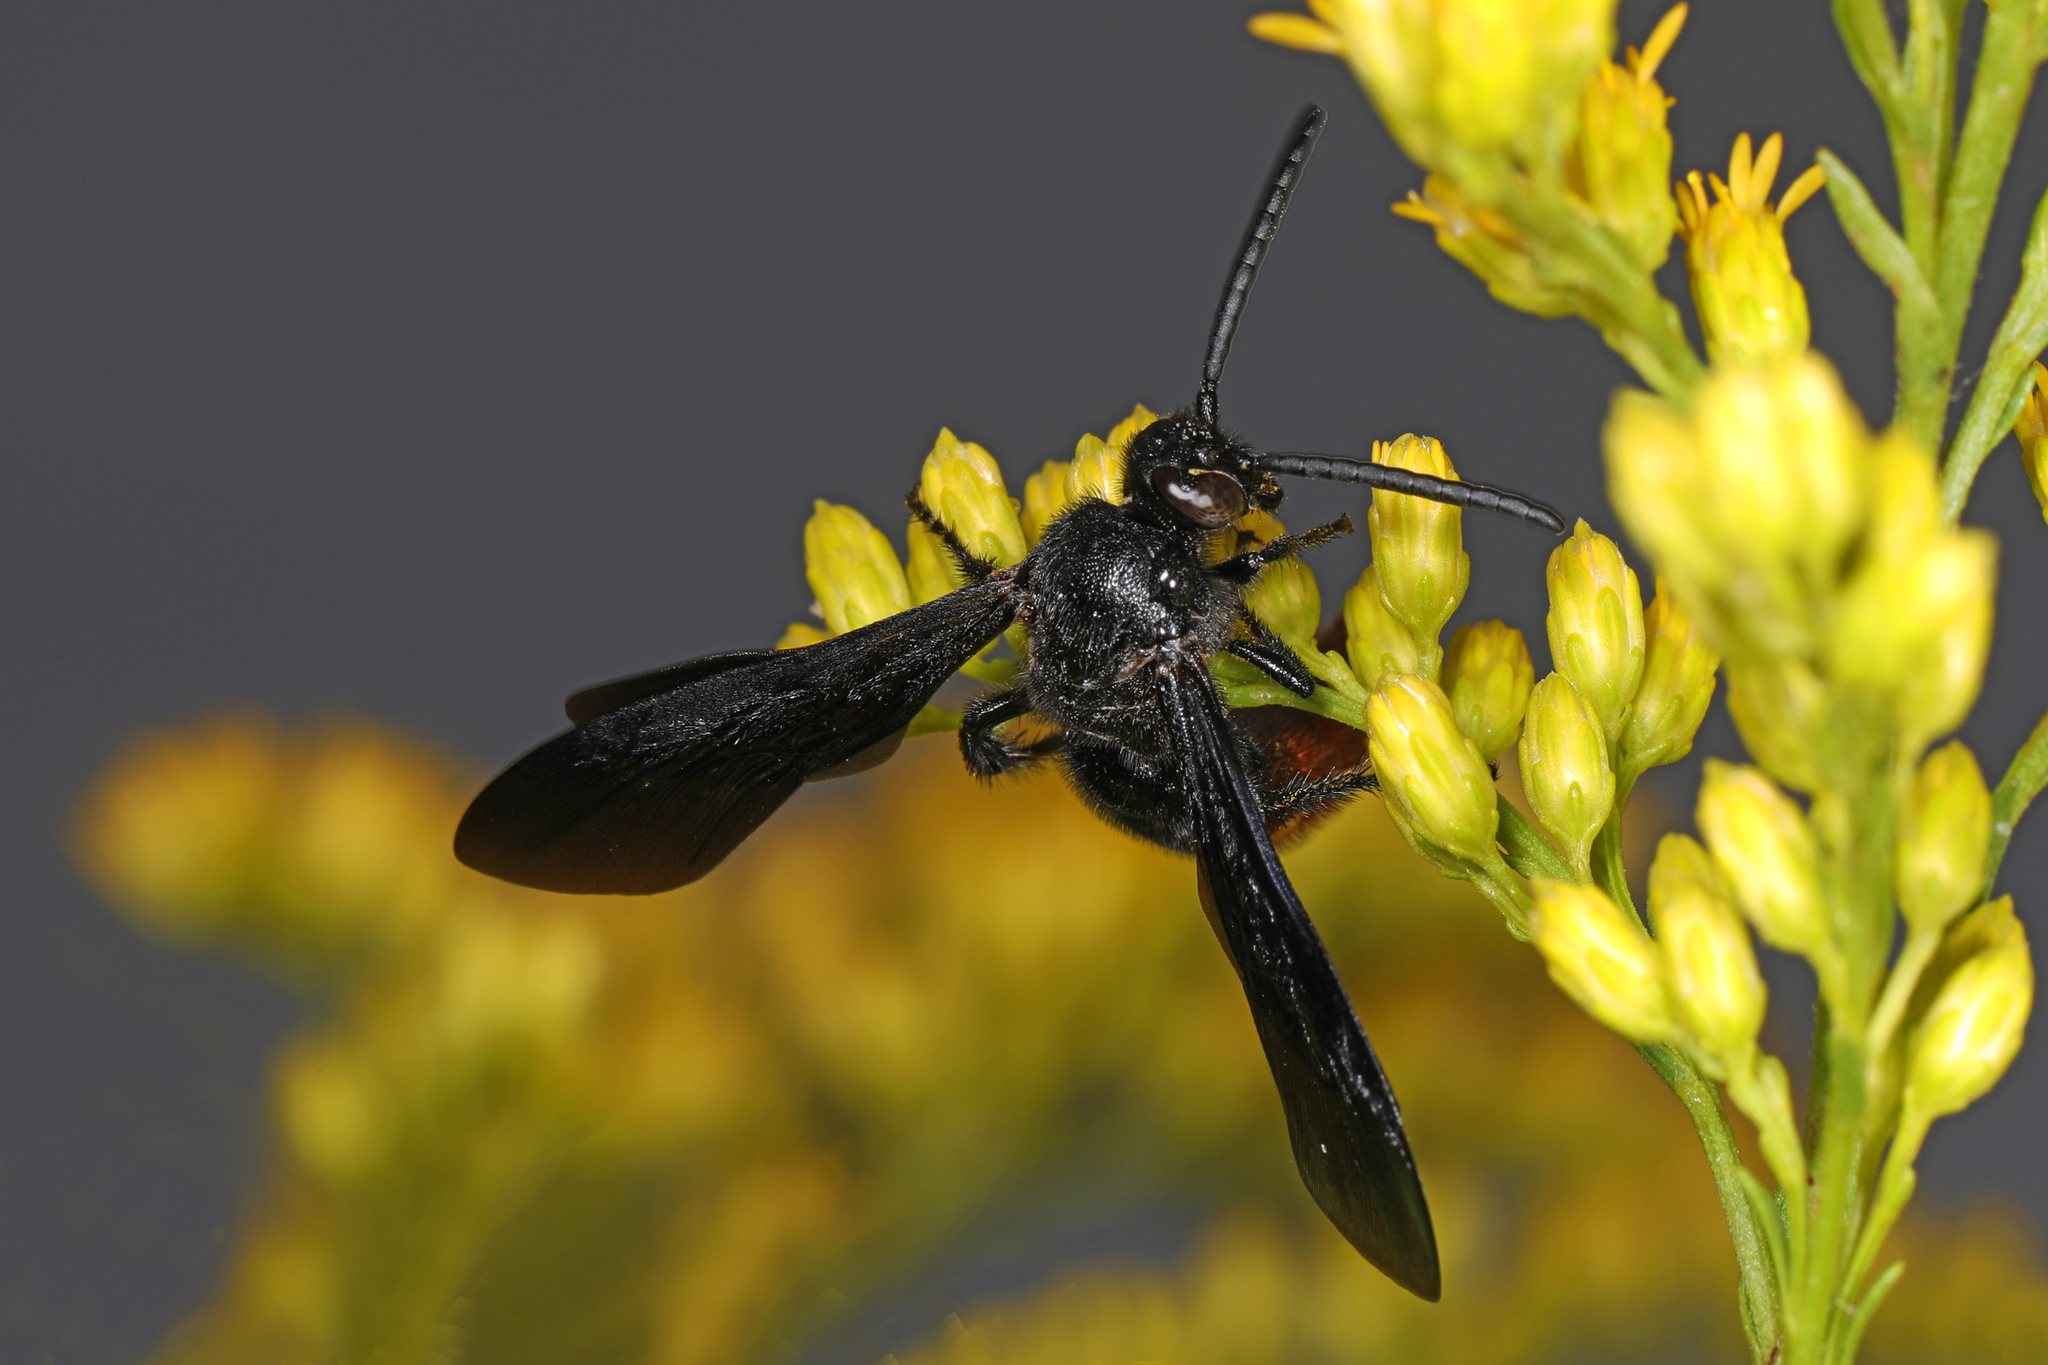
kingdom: Animalia
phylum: Arthropoda
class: Insecta
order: Hymenoptera
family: Scoliidae
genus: Scolia
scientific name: Scolia dubia
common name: Blue-winged scoliid wasp
